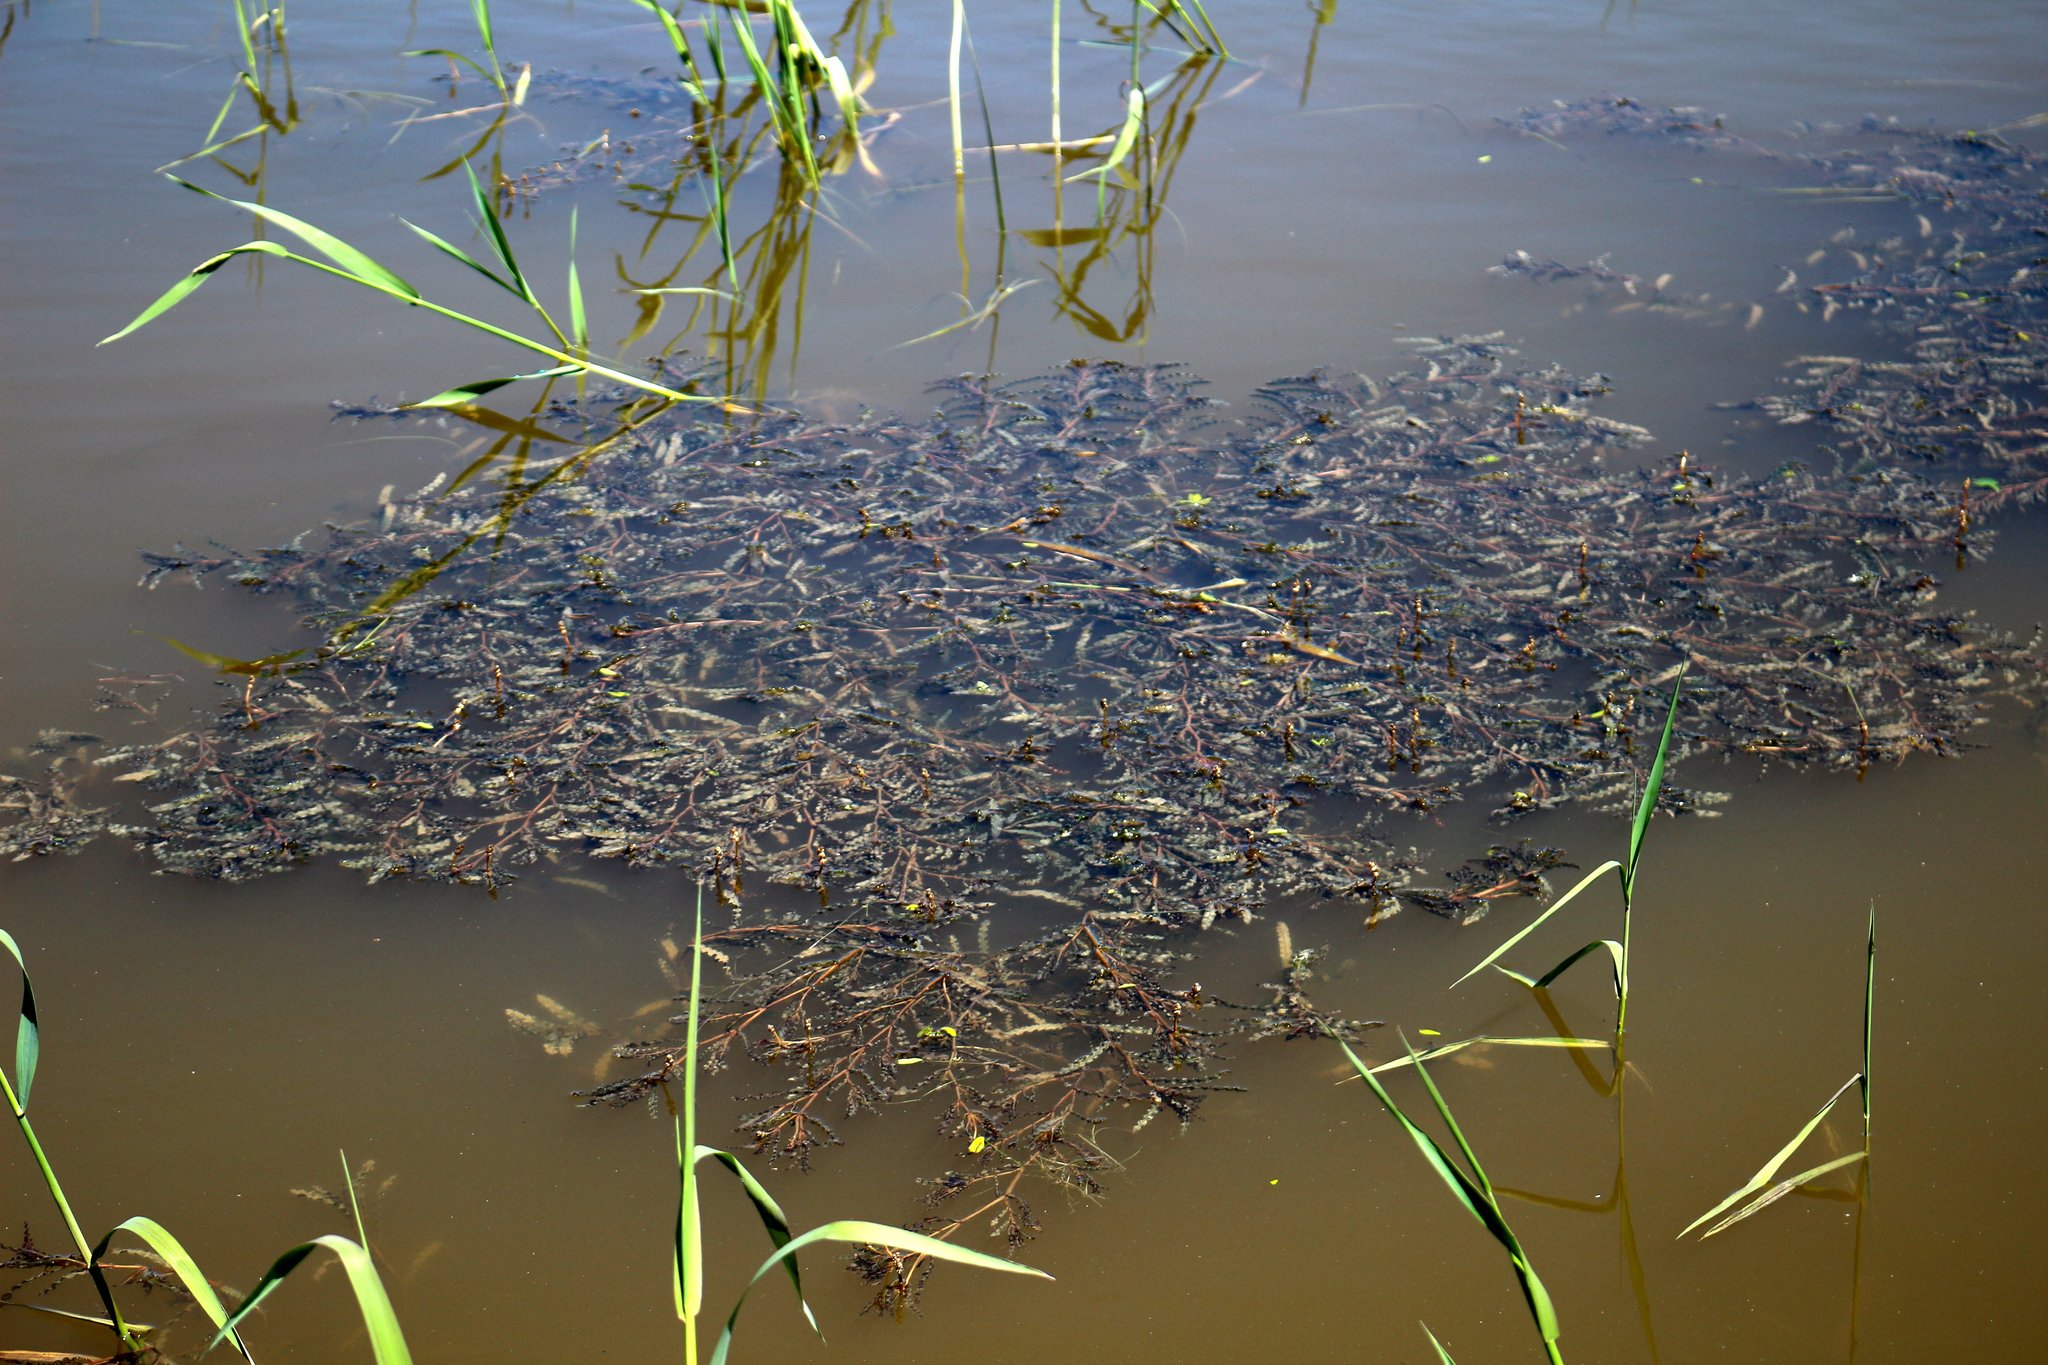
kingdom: Plantae
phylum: Tracheophyta
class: Liliopsida
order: Alismatales
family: Potamogetonaceae
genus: Potamogeton
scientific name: Potamogeton crispus
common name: Curled pondweed
